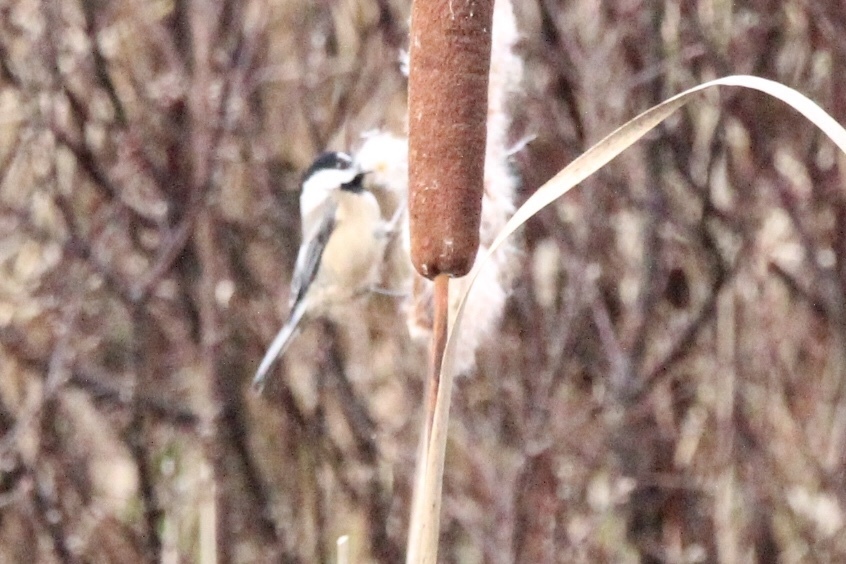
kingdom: Animalia
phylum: Chordata
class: Aves
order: Passeriformes
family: Paridae
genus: Poecile
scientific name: Poecile atricapillus
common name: Black-capped chickadee
